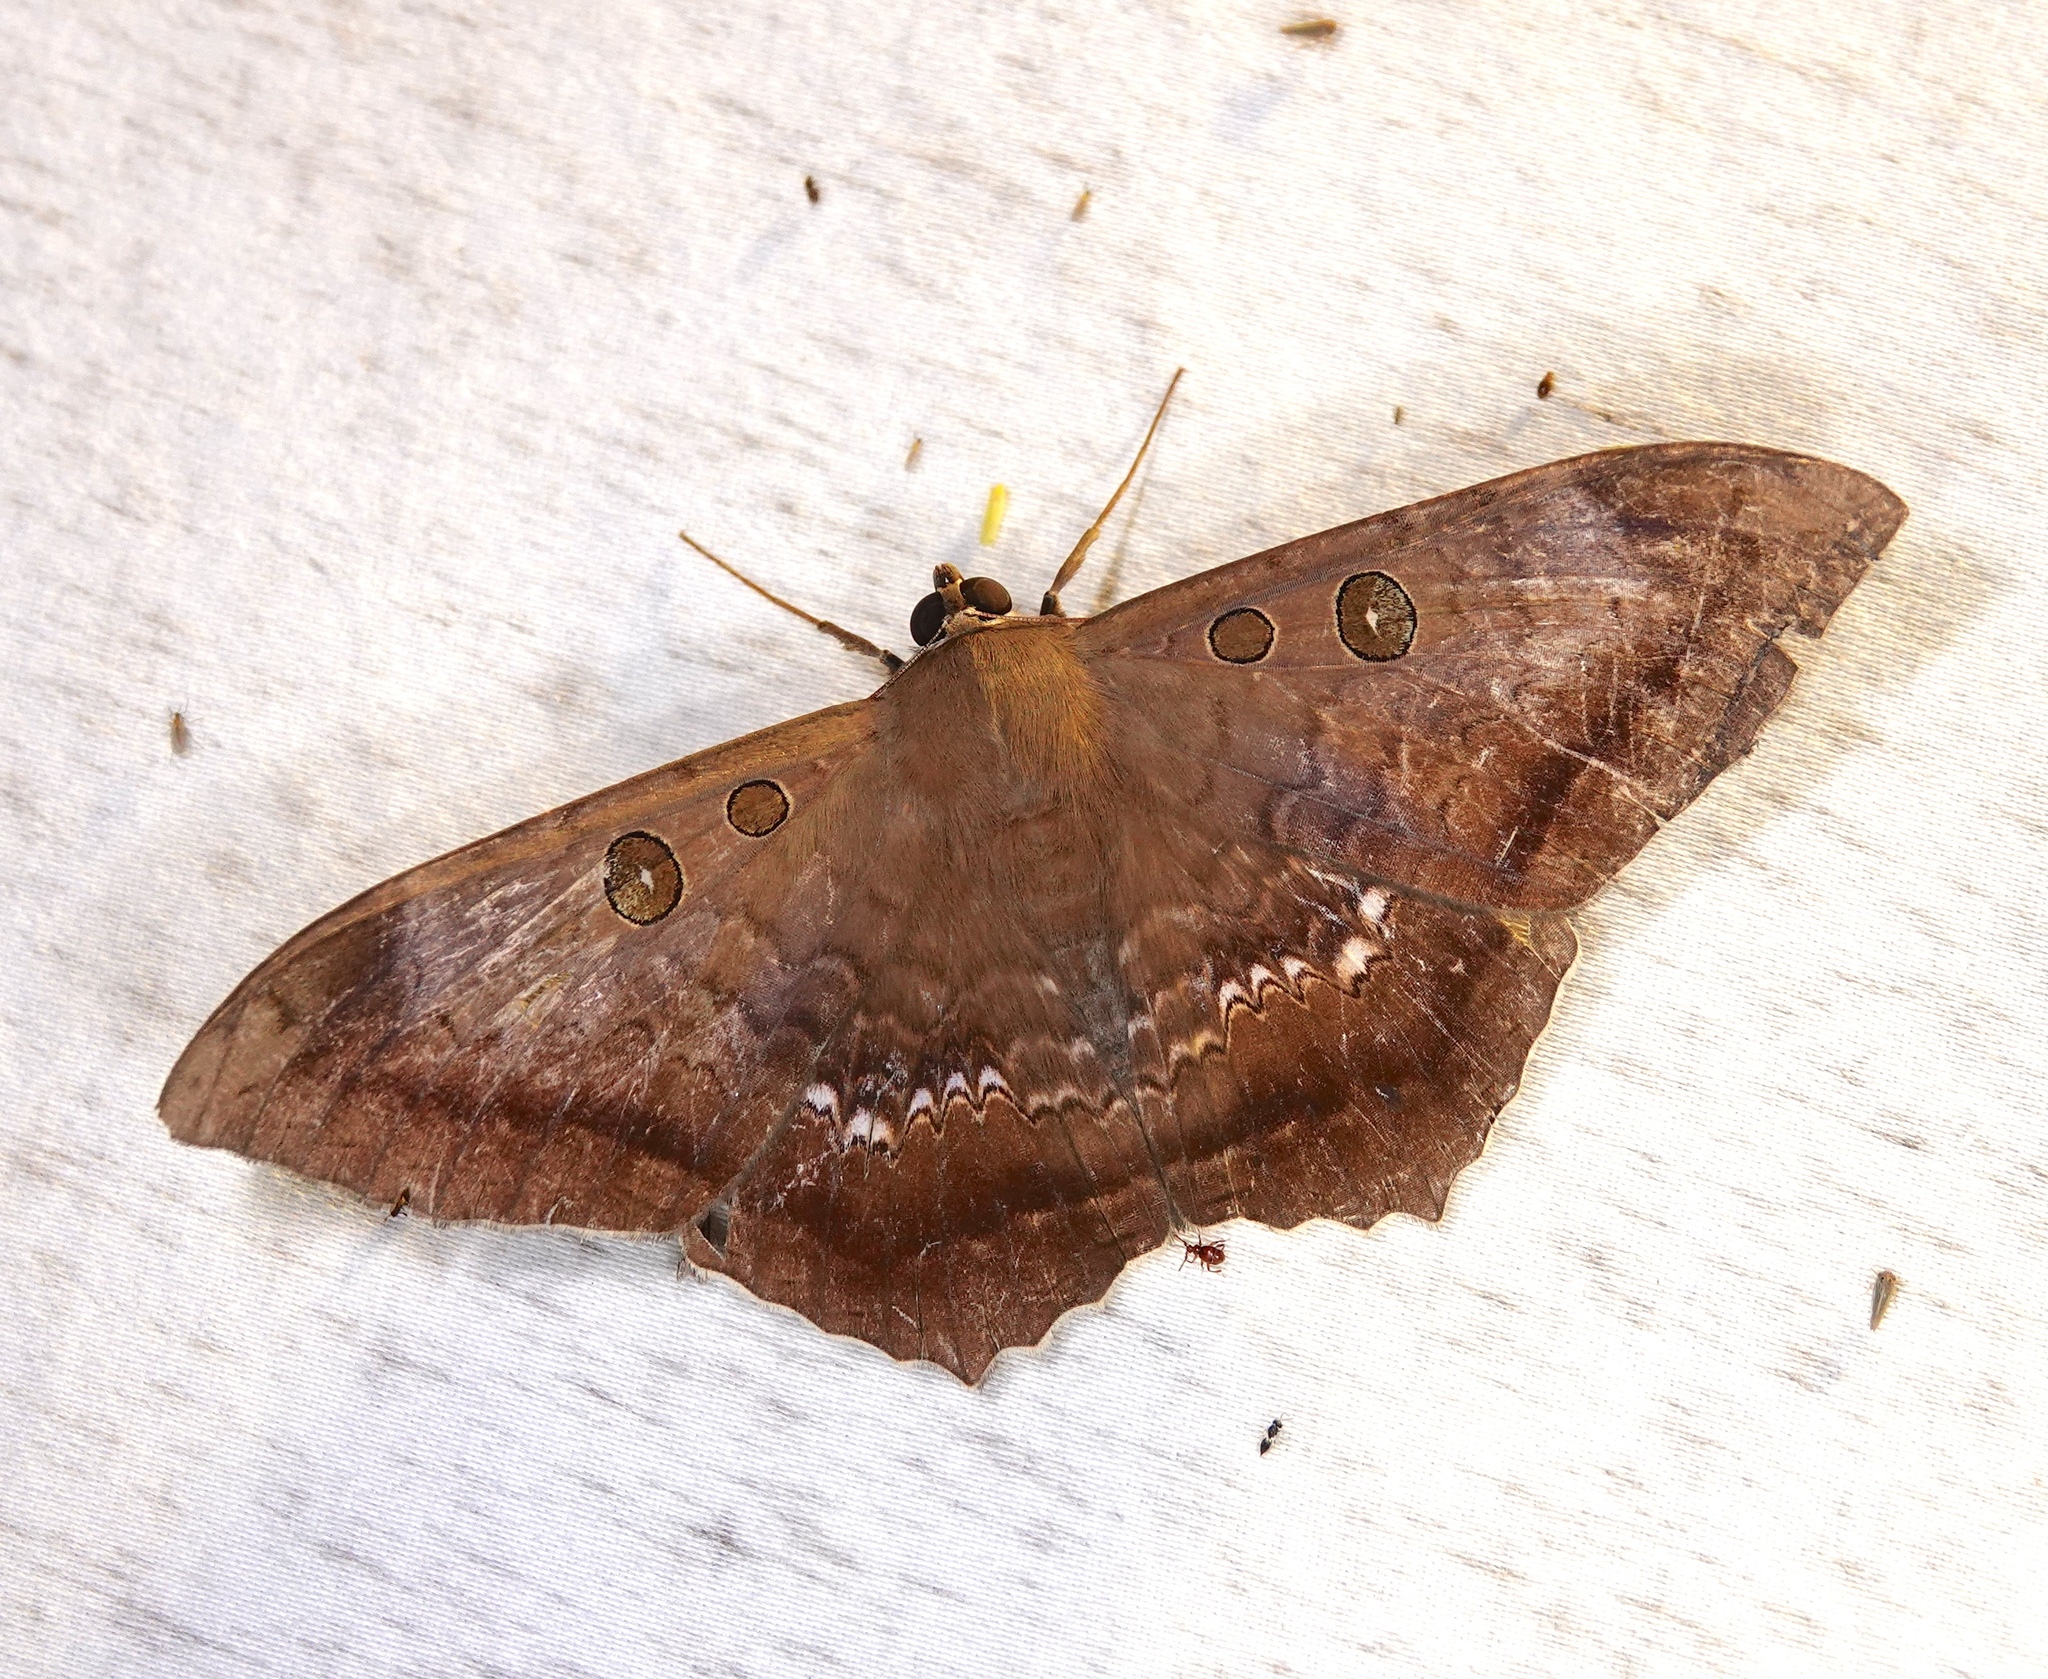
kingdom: Animalia
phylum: Arthropoda
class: Insecta
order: Lepidoptera
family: Erebidae
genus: Cyclopis
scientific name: Cyclopis caecutiens
